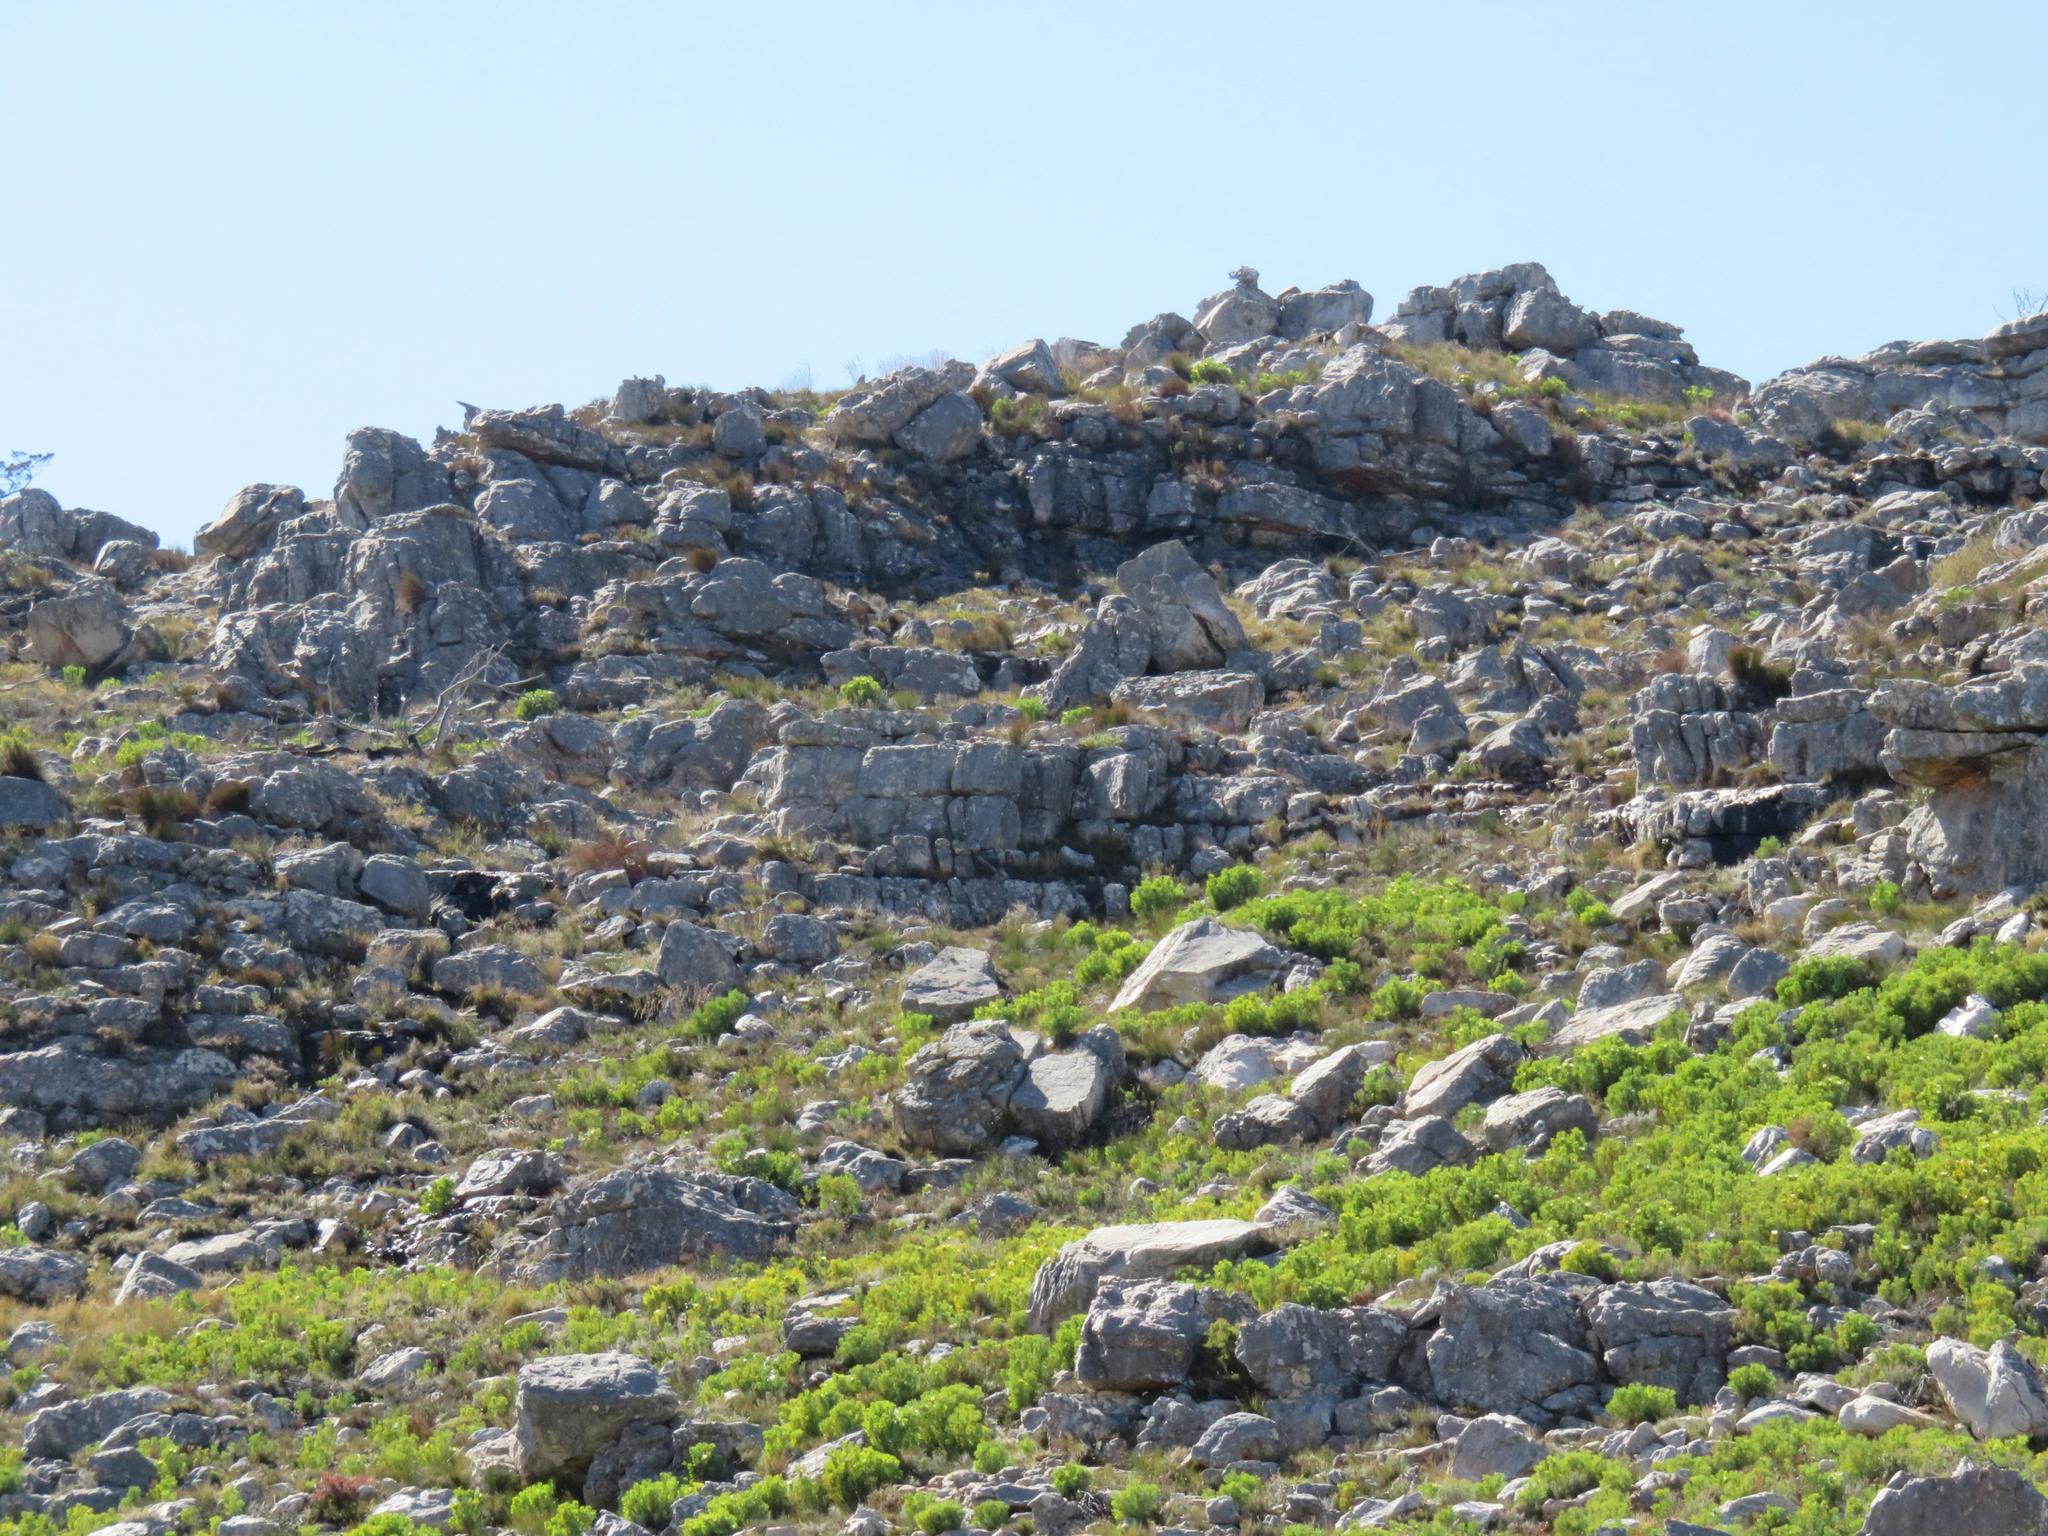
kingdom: Plantae
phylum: Tracheophyta
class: Magnoliopsida
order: Proteales
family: Proteaceae
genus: Protea
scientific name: Protea repens
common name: Sugarbush
